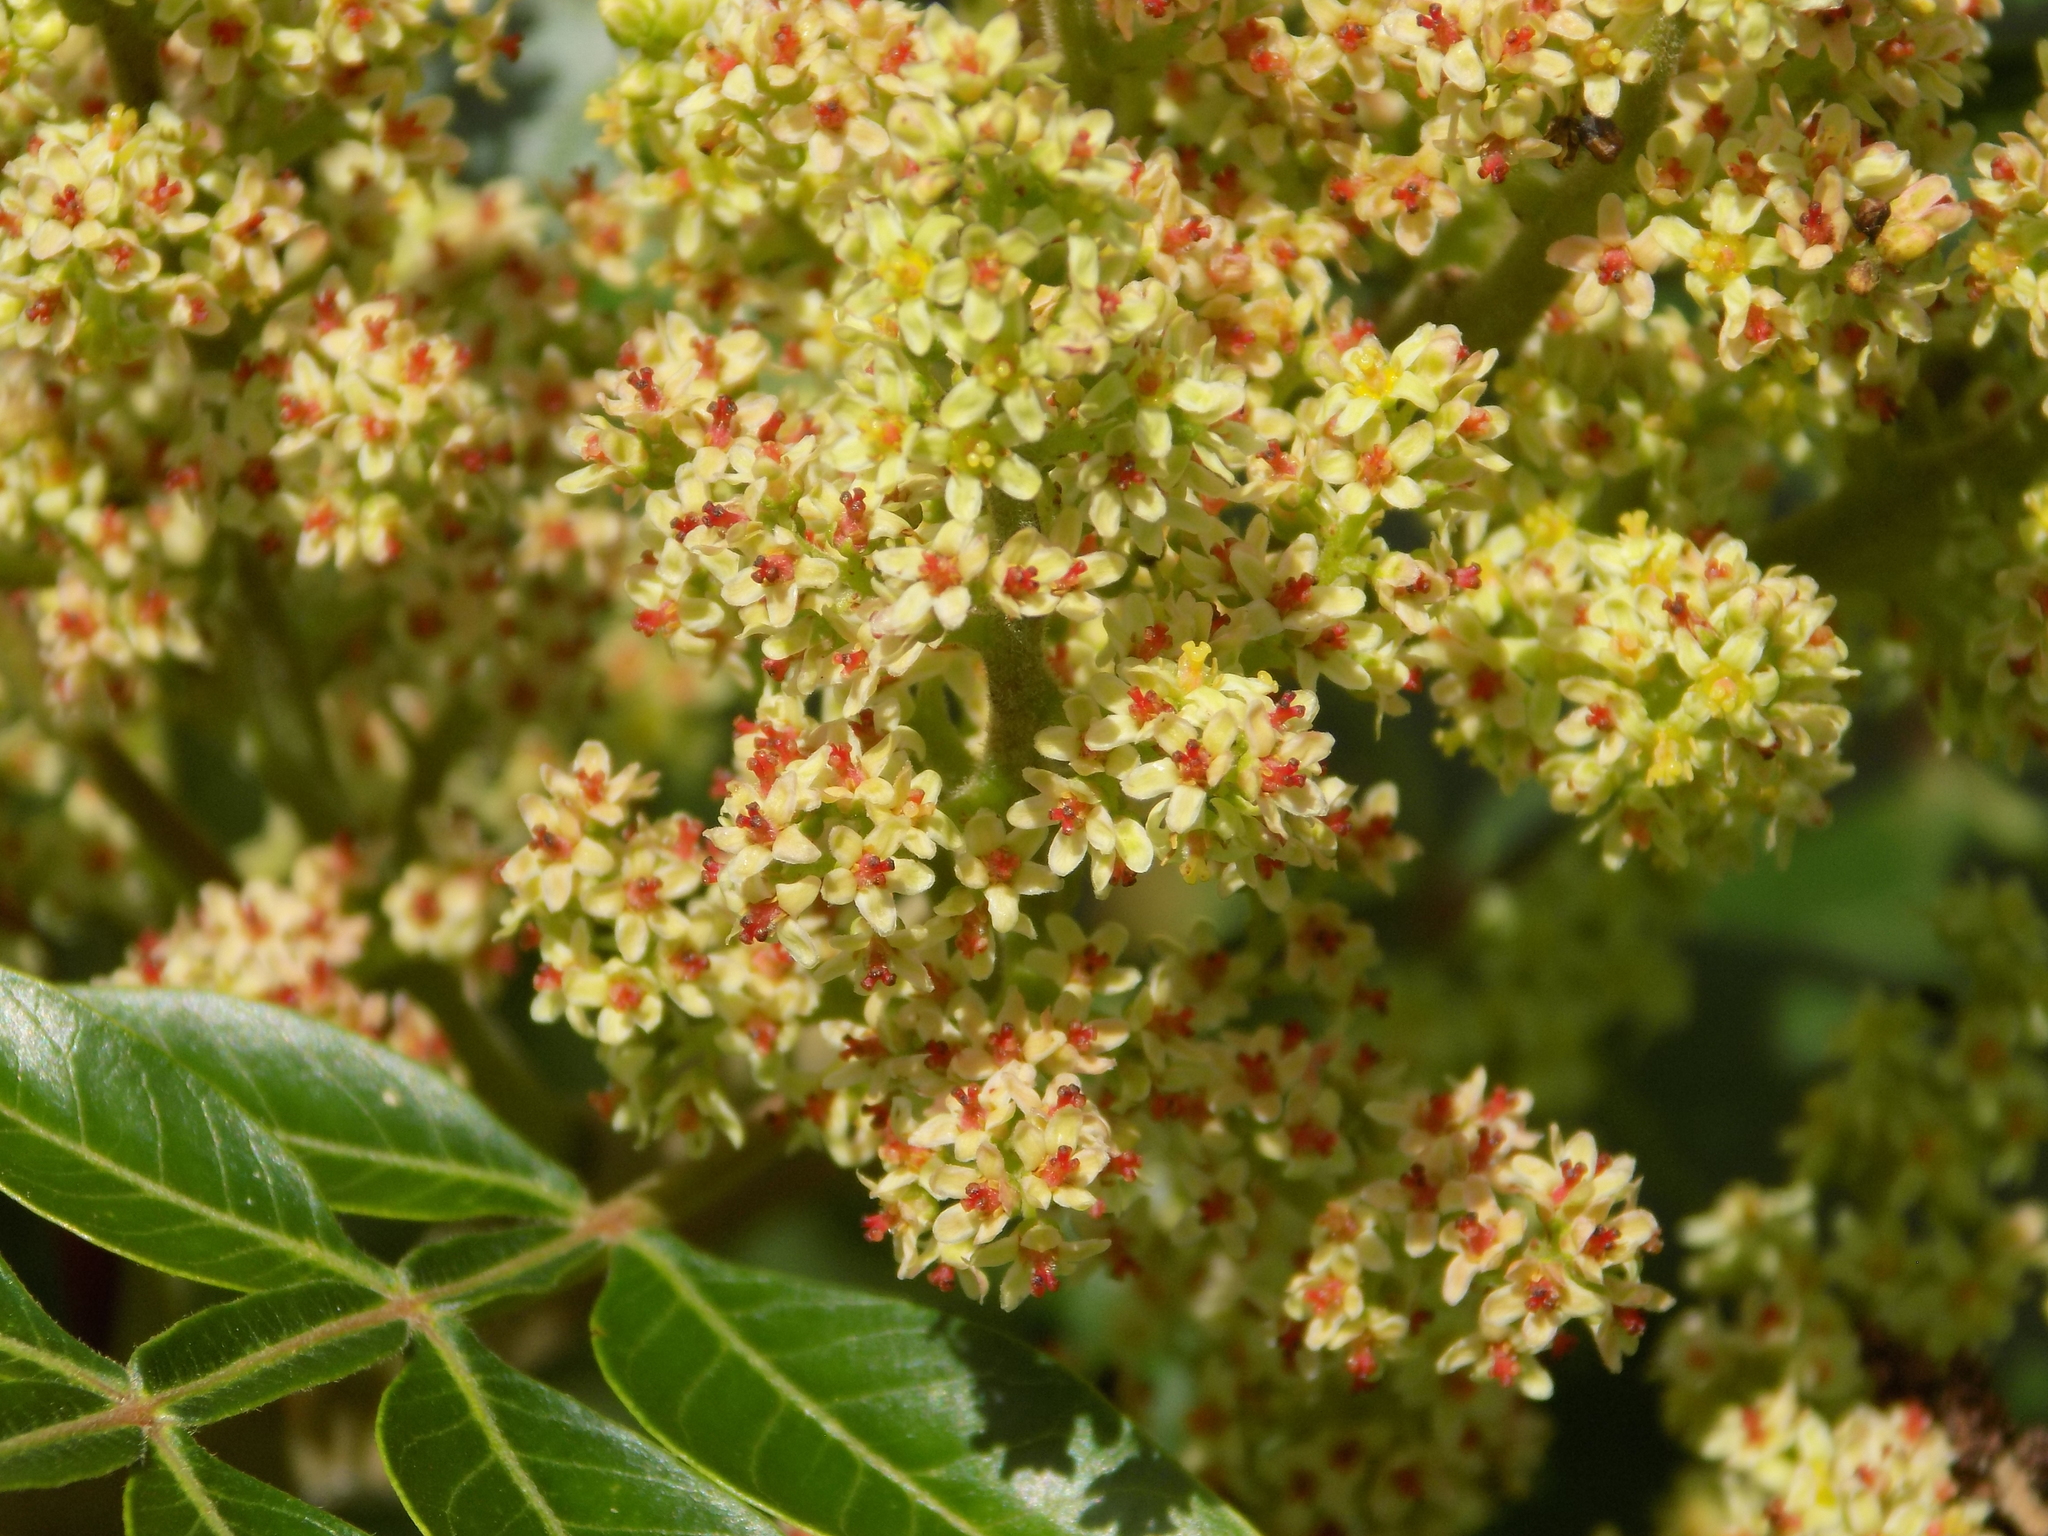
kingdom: Plantae
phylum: Tracheophyta
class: Magnoliopsida
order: Sapindales
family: Anacardiaceae
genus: Rhus
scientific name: Rhus copallina
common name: Shining sumac
